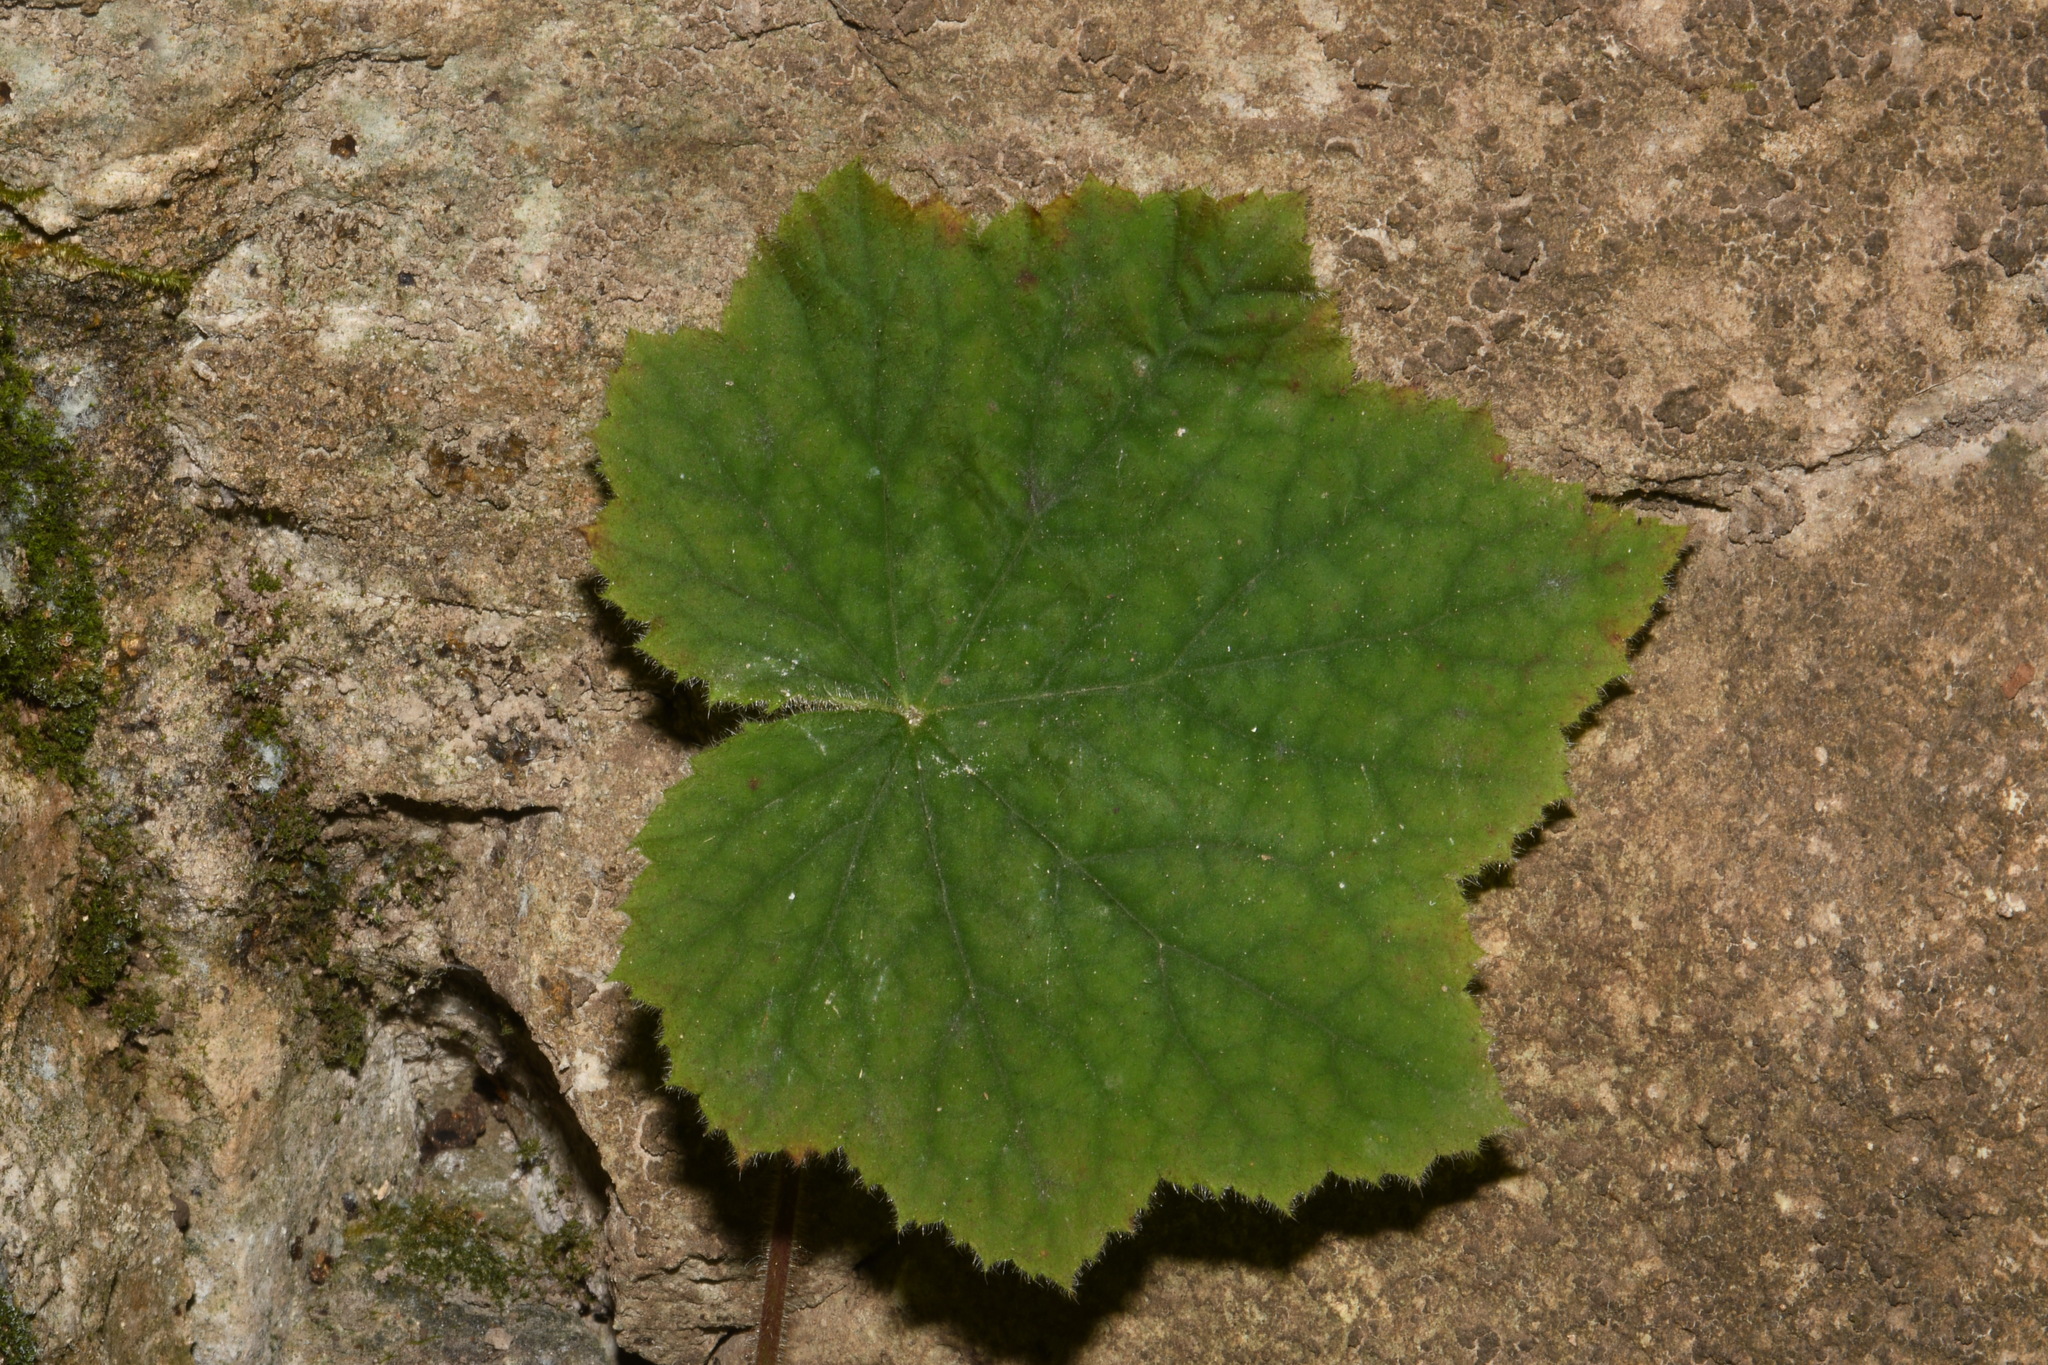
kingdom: Plantae
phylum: Tracheophyta
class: Magnoliopsida
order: Saxifragales
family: Saxifragaceae
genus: Heuchera
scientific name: Heuchera villosa
